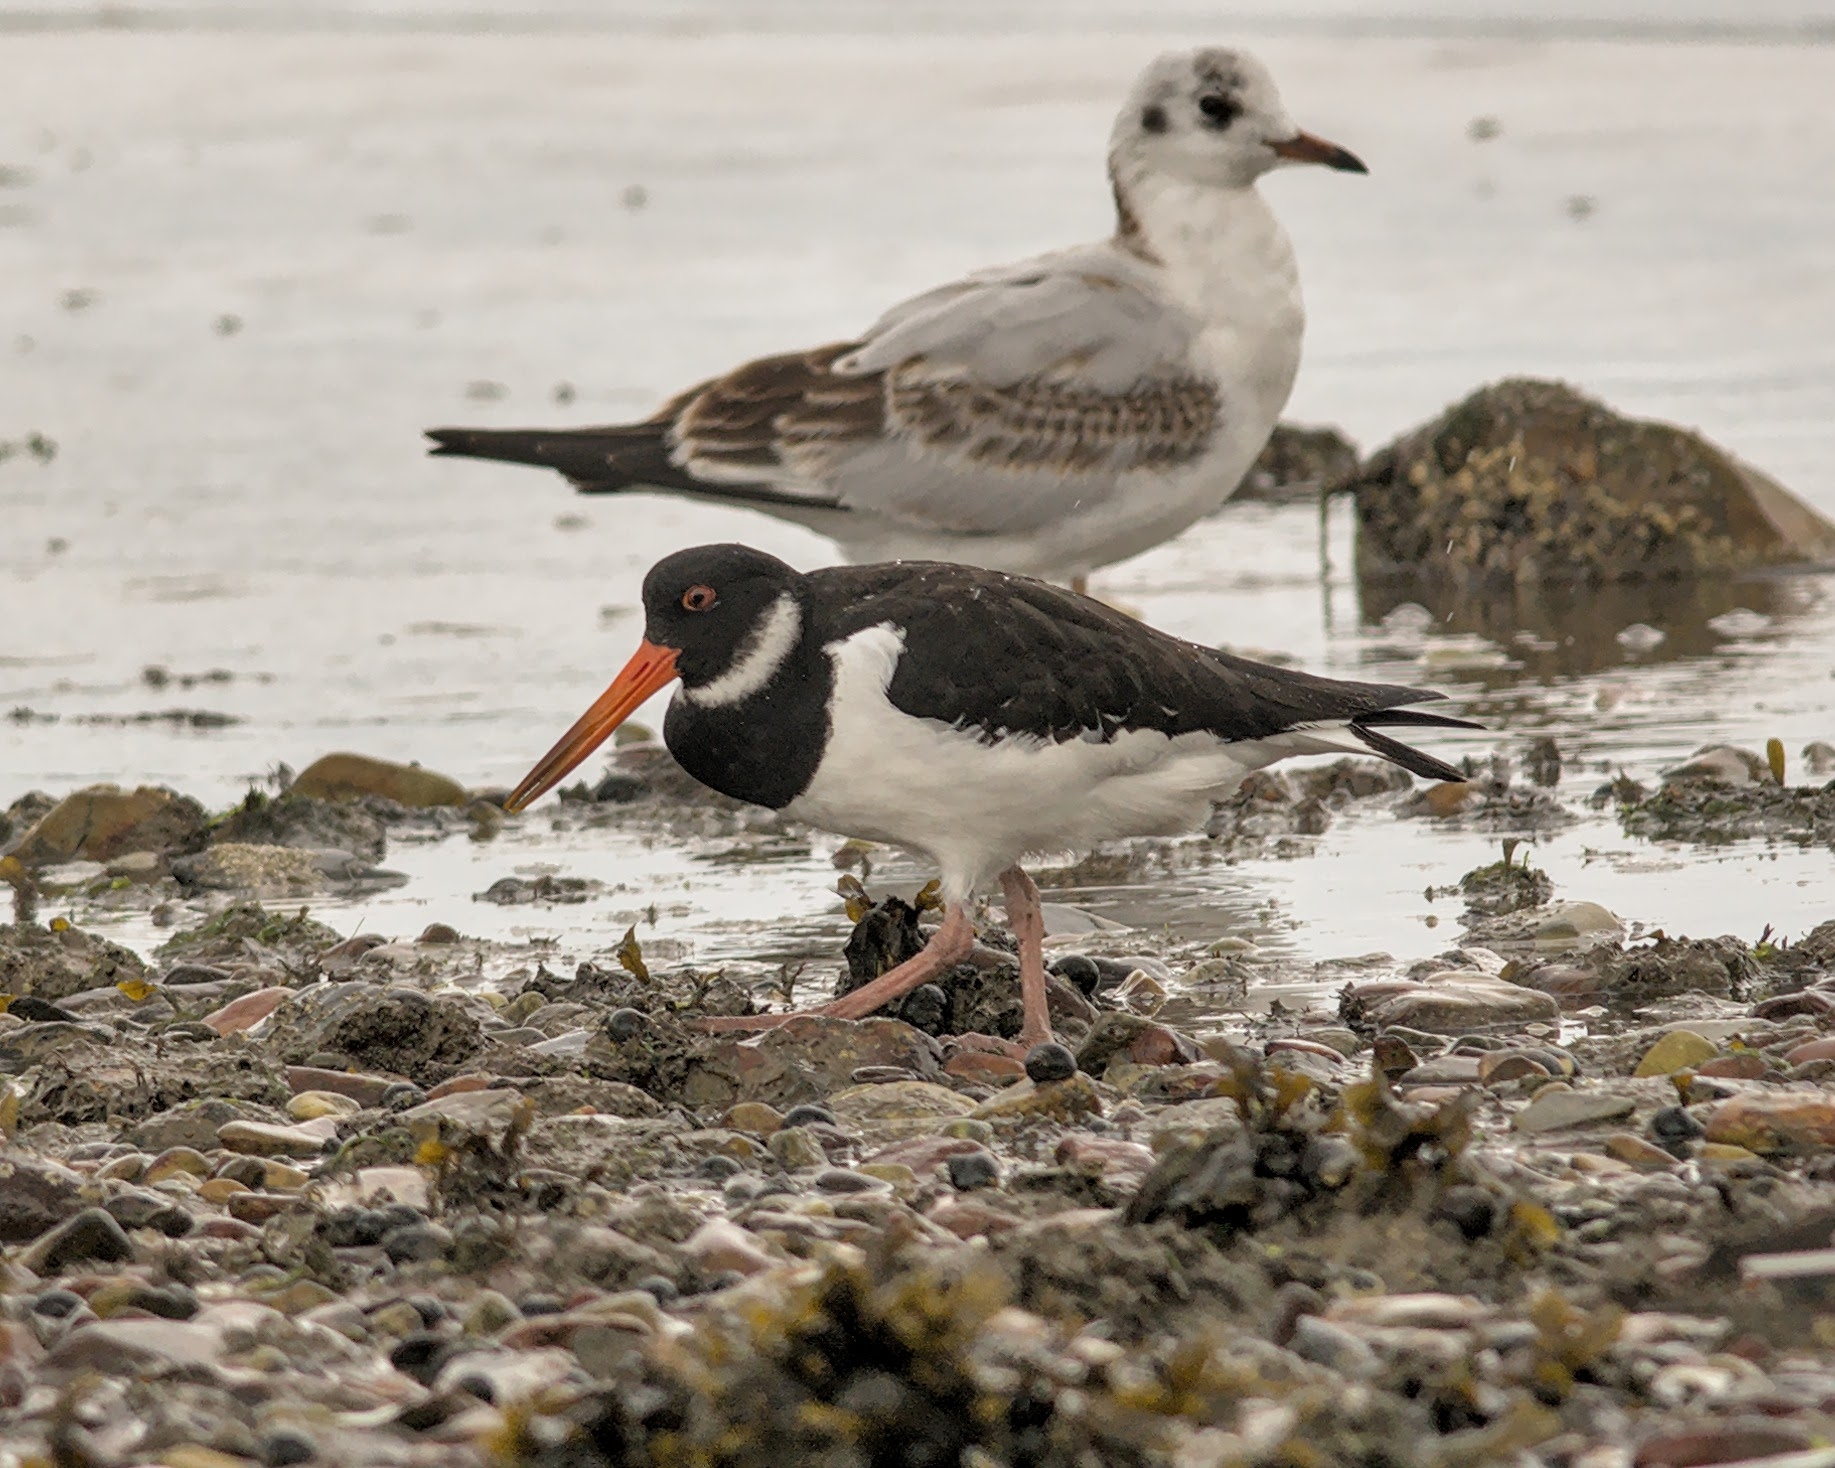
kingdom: Animalia
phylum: Chordata
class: Aves
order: Charadriiformes
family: Haematopodidae
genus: Haematopus
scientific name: Haematopus ostralegus
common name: Eurasian oystercatcher
